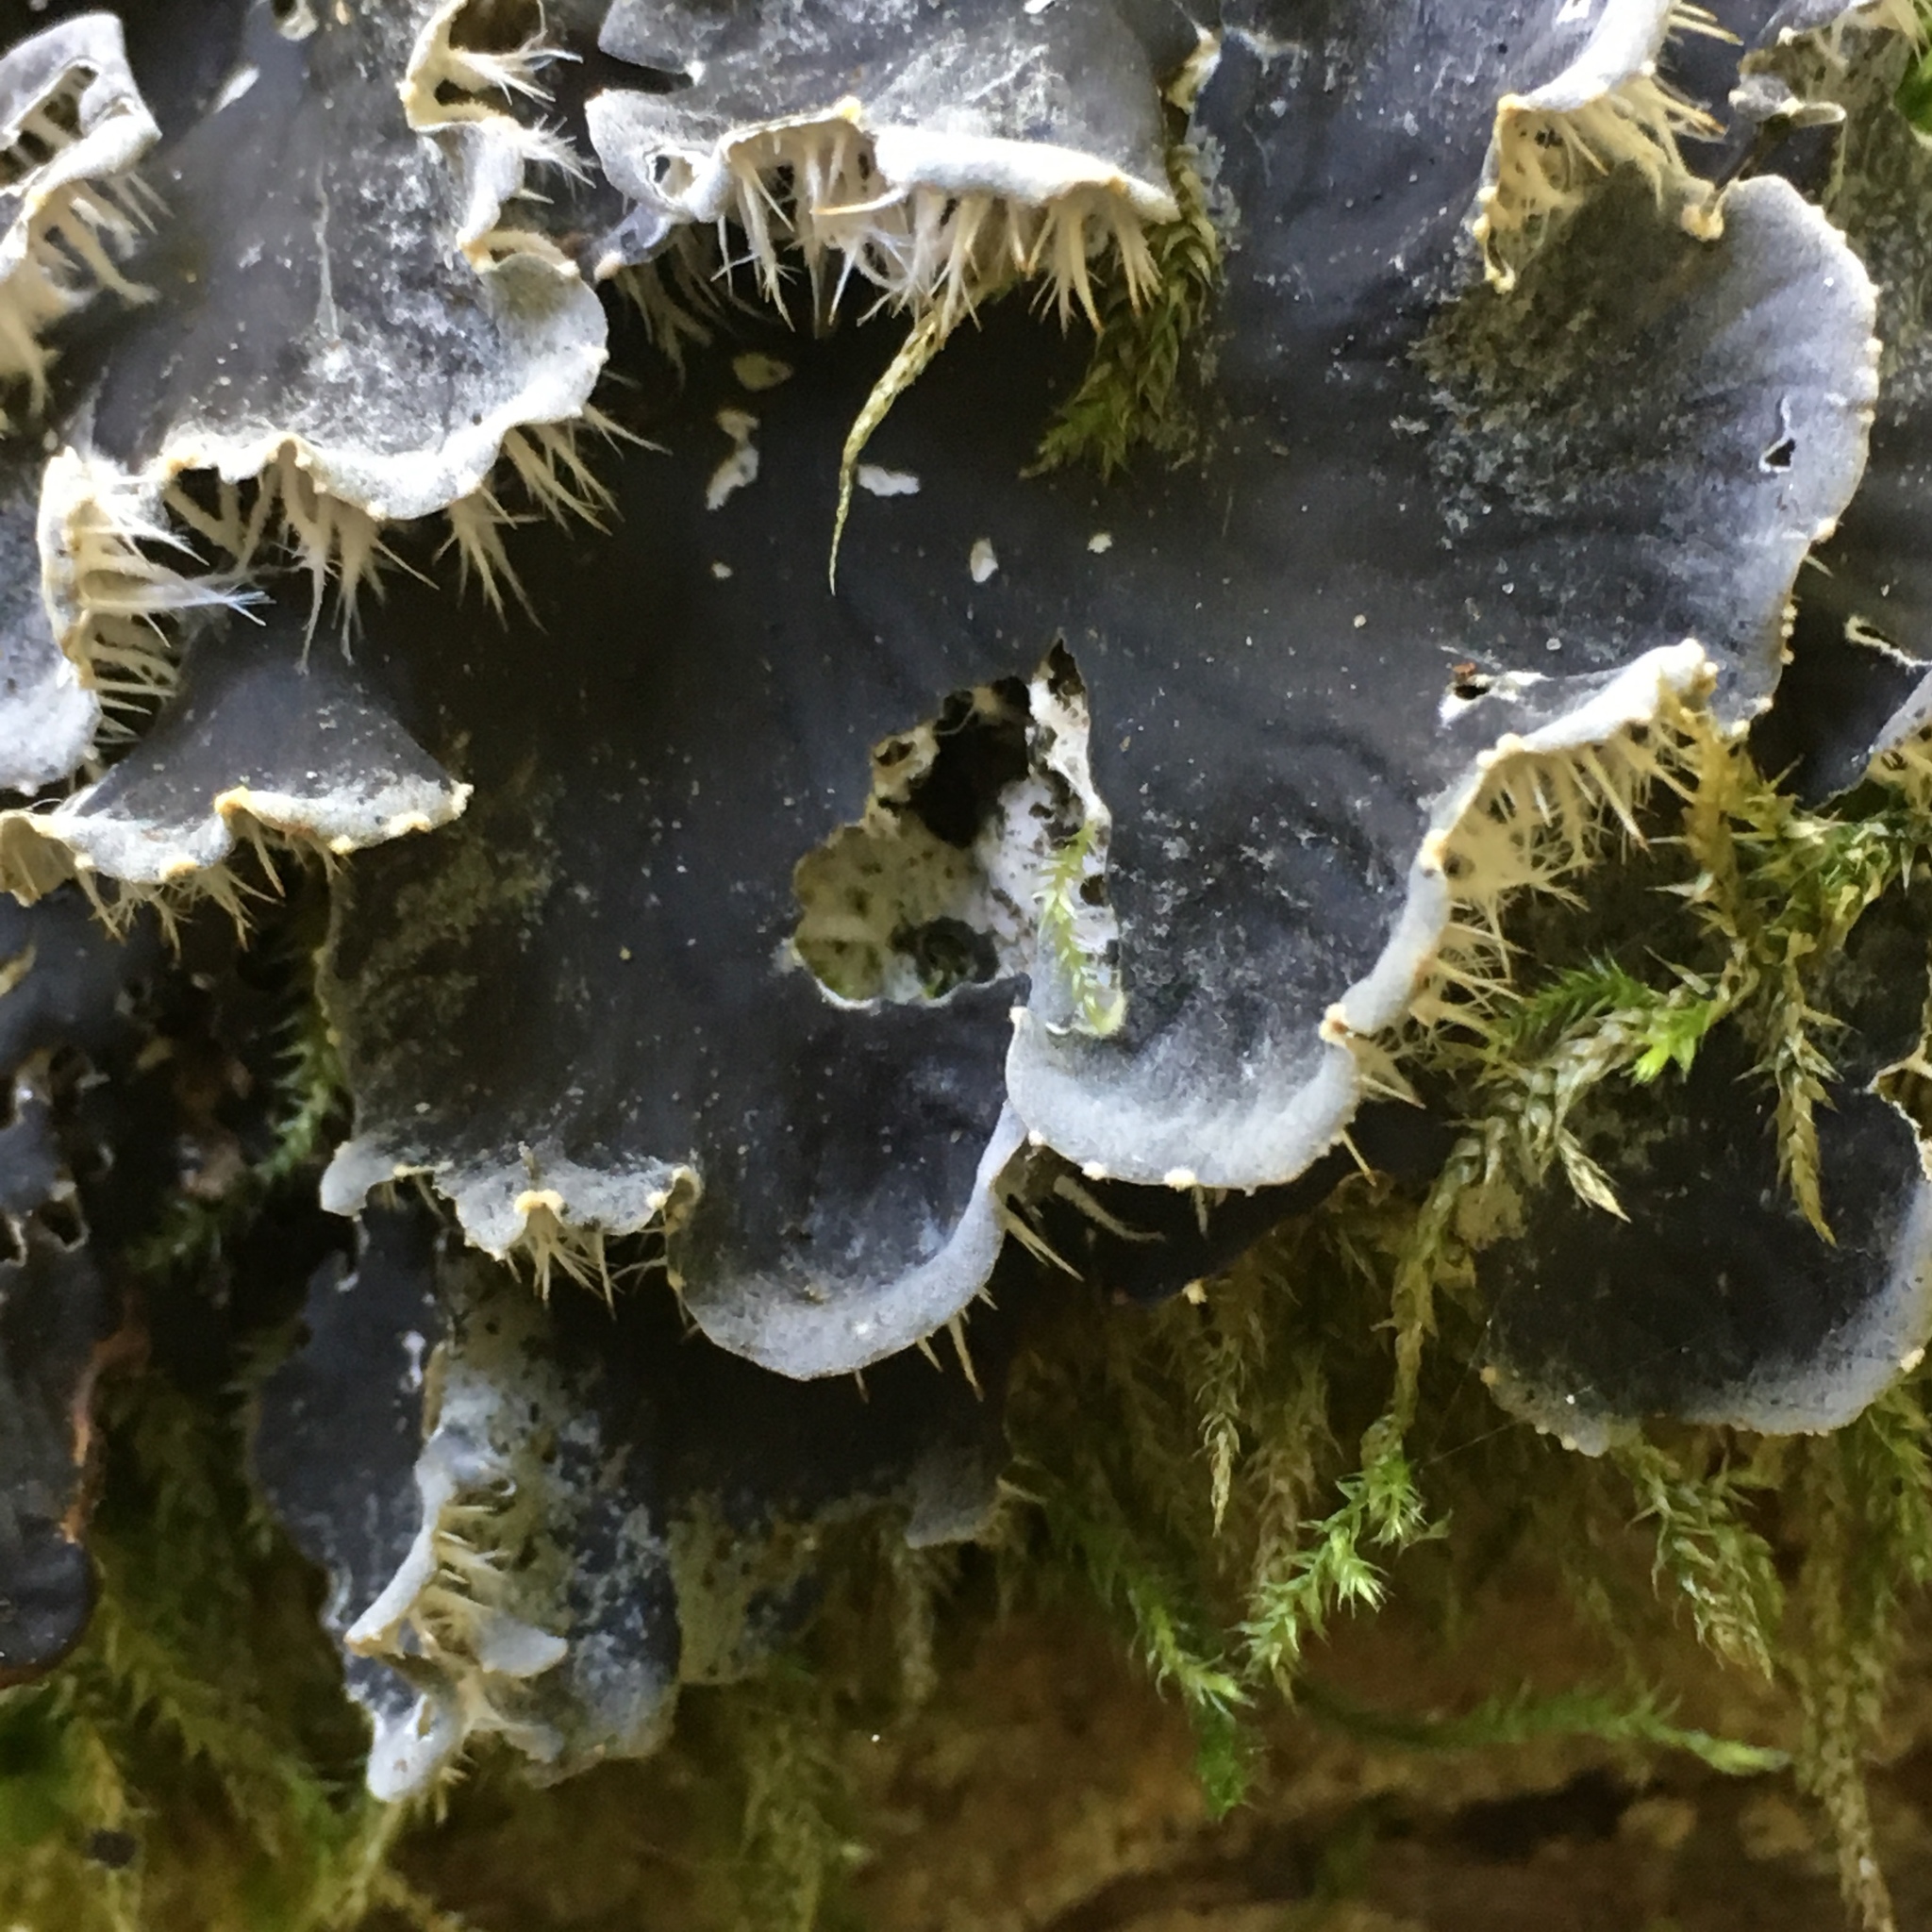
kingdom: Fungi
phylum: Ascomycota
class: Lecanoromycetes
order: Peltigerales
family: Peltigeraceae
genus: Peltigera
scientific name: Peltigera
